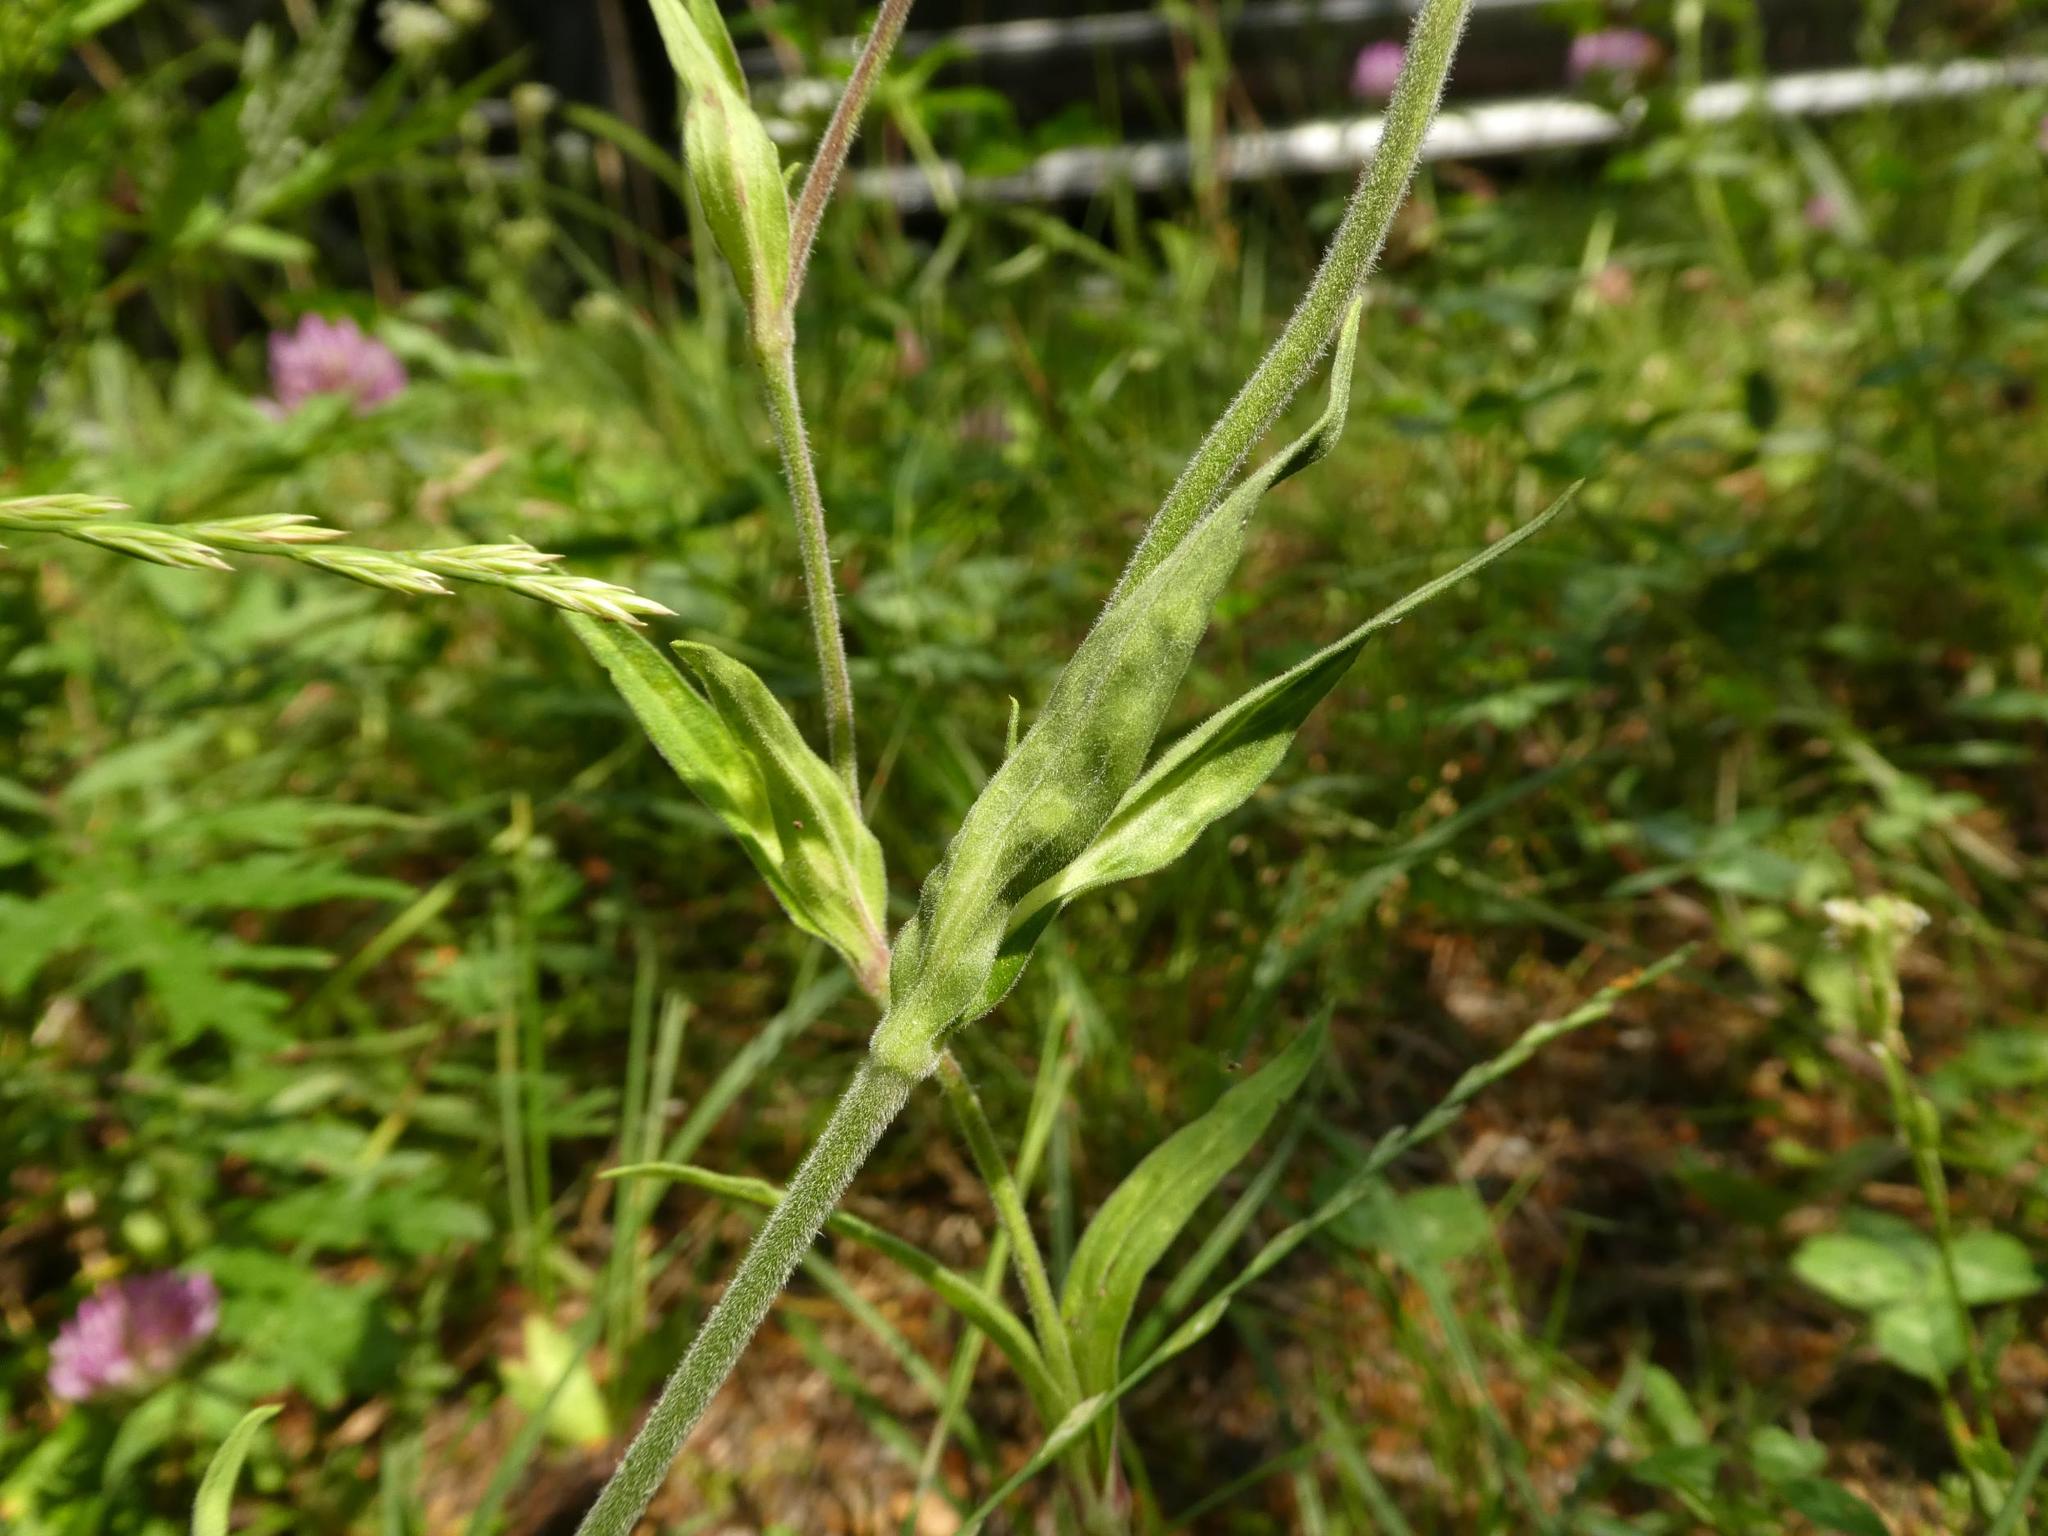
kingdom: Plantae
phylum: Tracheophyta
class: Magnoliopsida
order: Caryophyllales
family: Caryophyllaceae
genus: Silene
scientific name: Silene latifolia
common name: White campion
